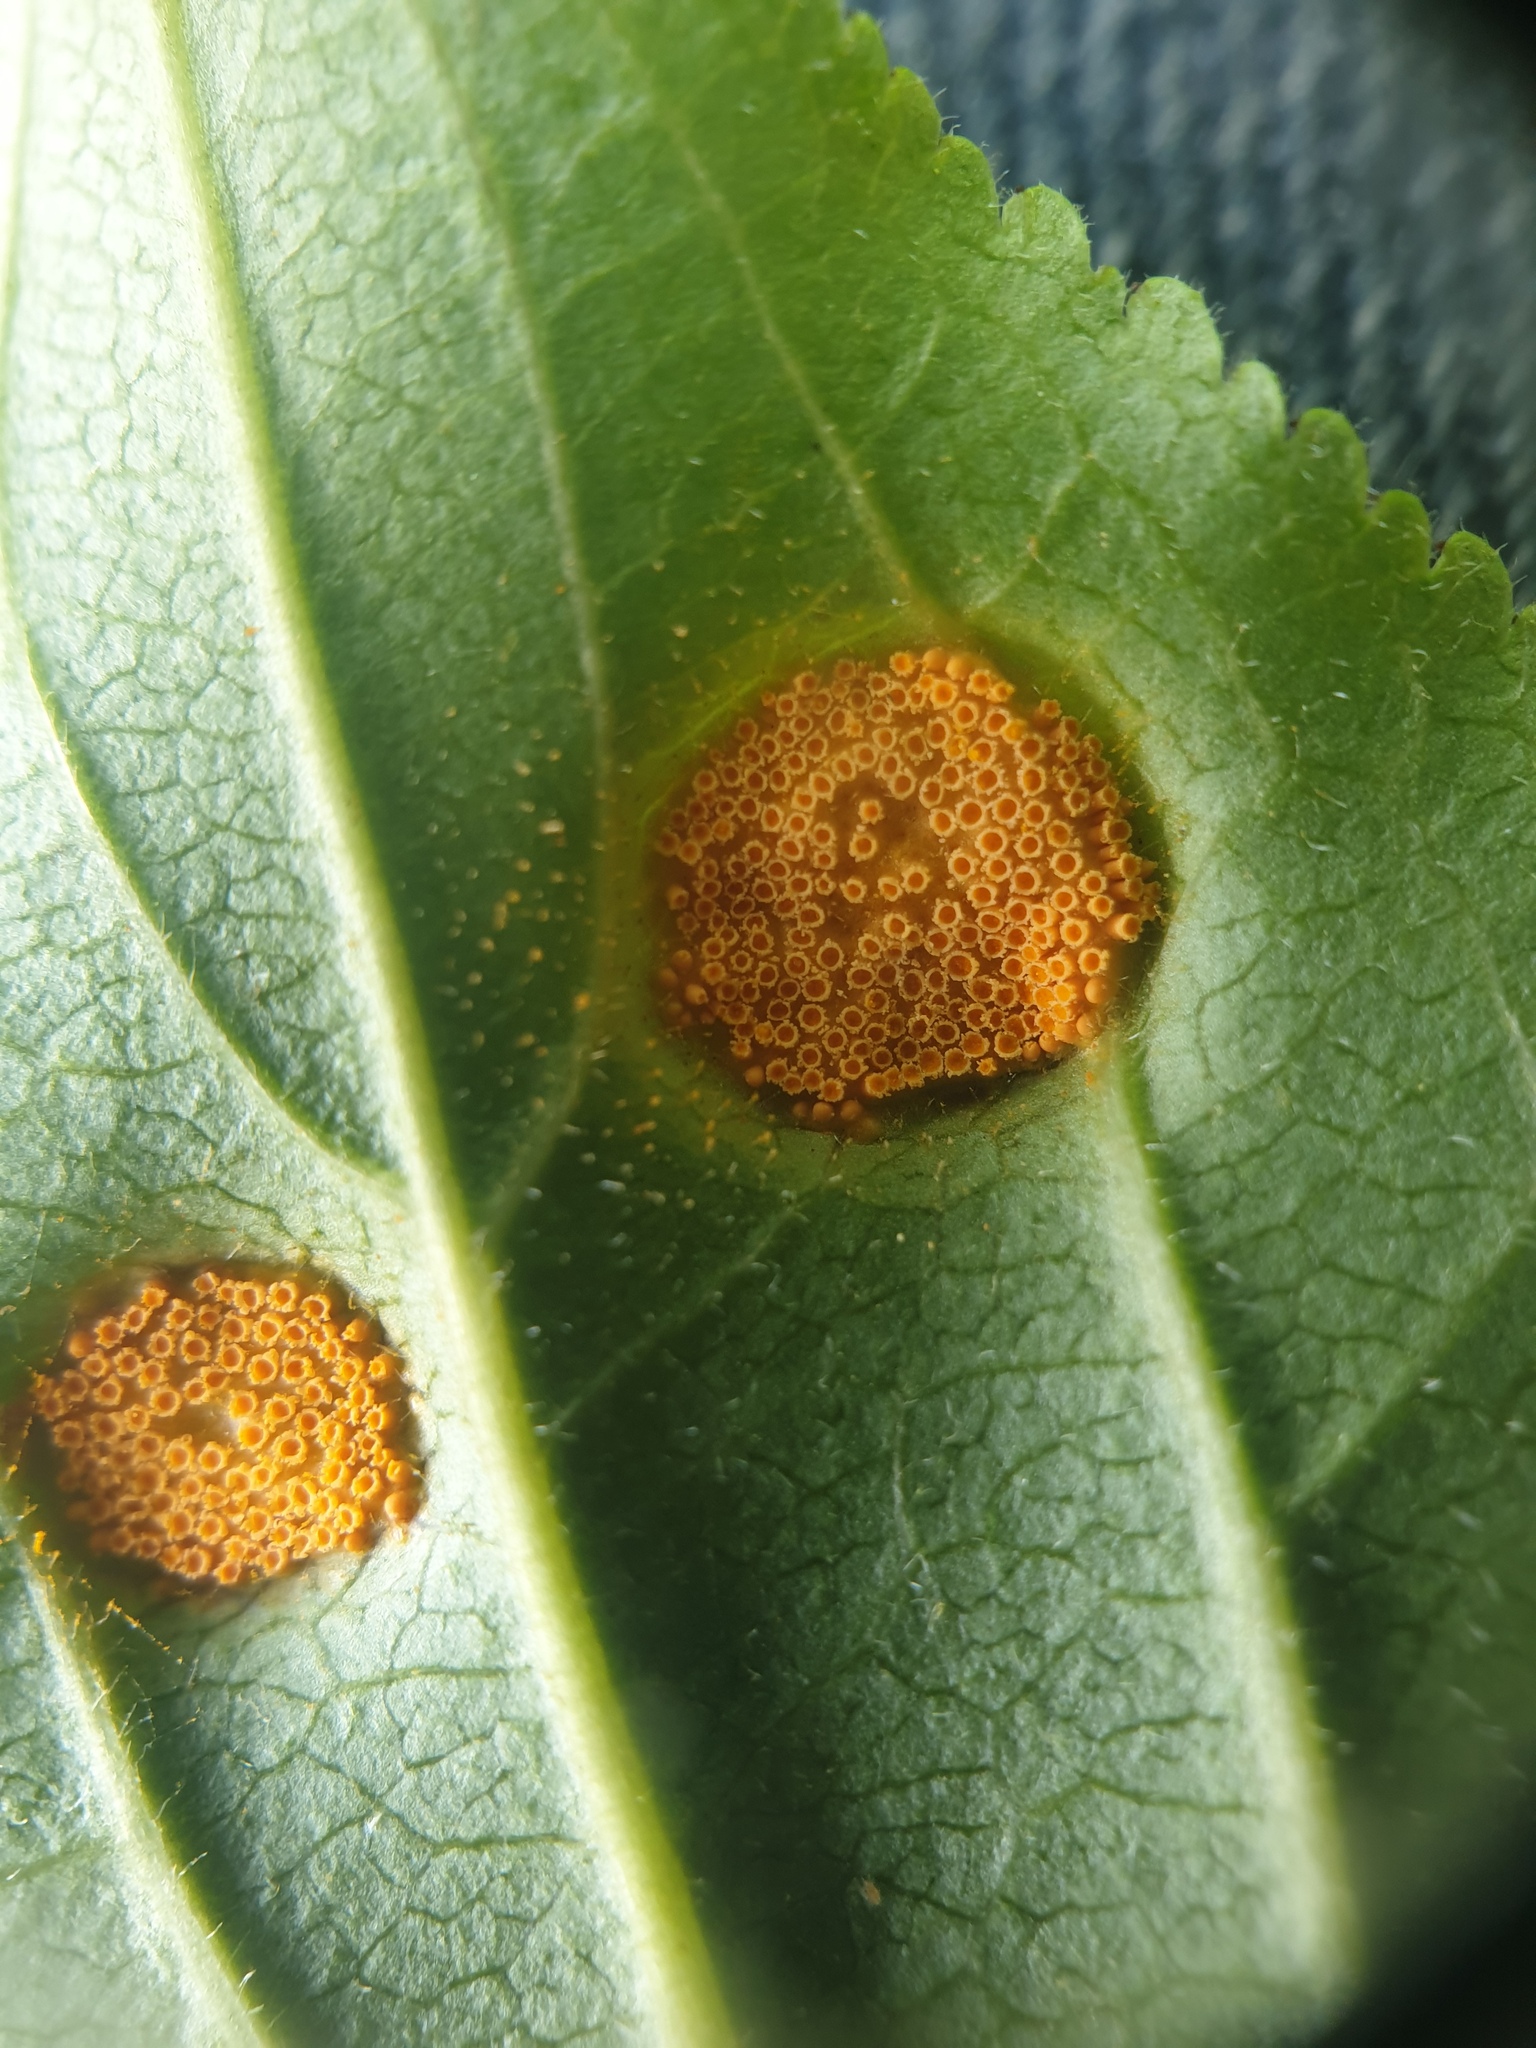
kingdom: Fungi
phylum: Basidiomycota
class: Pucciniomycetes
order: Pucciniales
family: Pucciniaceae
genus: Puccinia
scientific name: Puccinia coronata
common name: Crown rust
